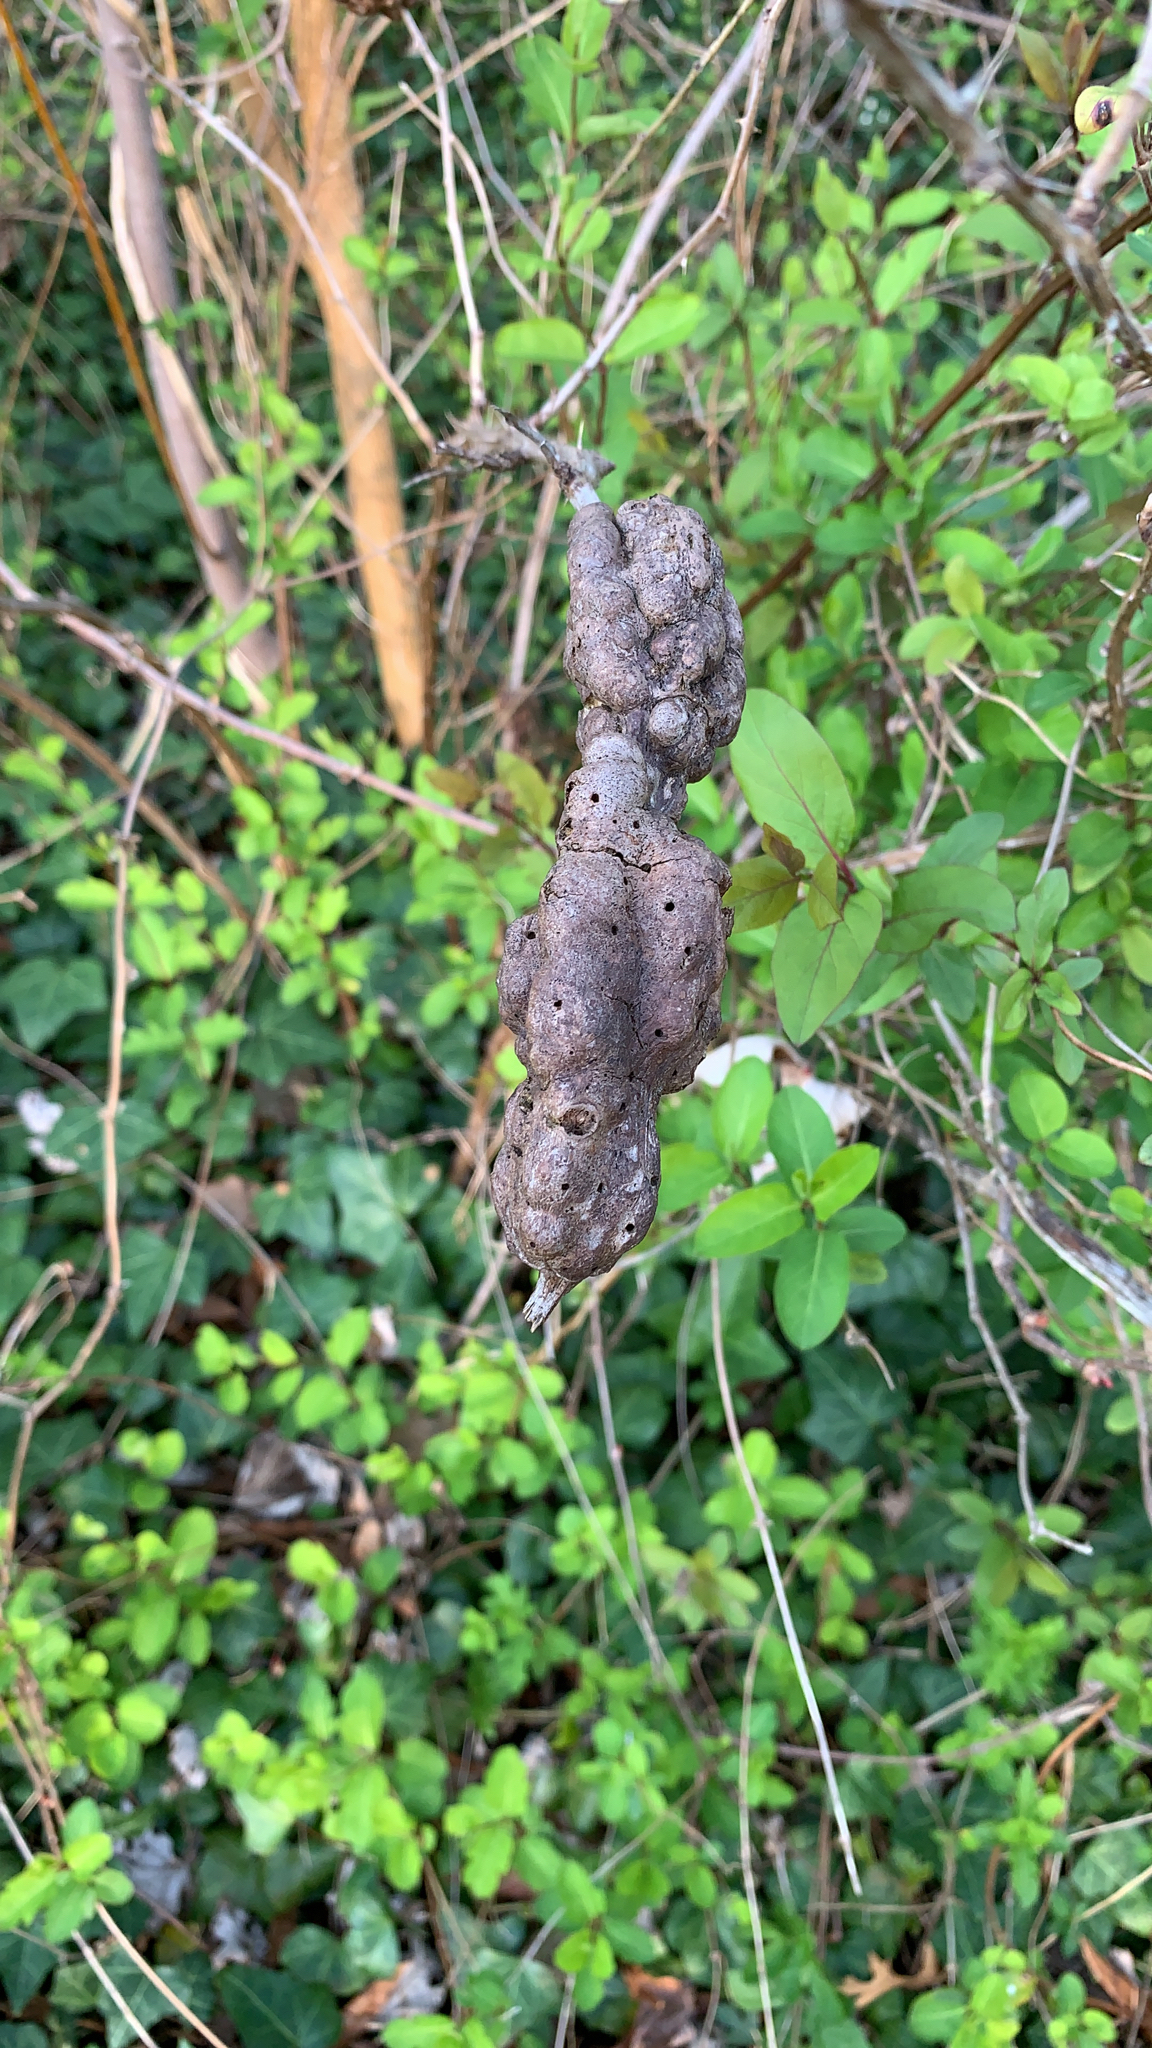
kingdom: Animalia
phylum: Arthropoda
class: Insecta
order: Hymenoptera
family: Cynipidae
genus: Diastrophus
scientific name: Diastrophus
